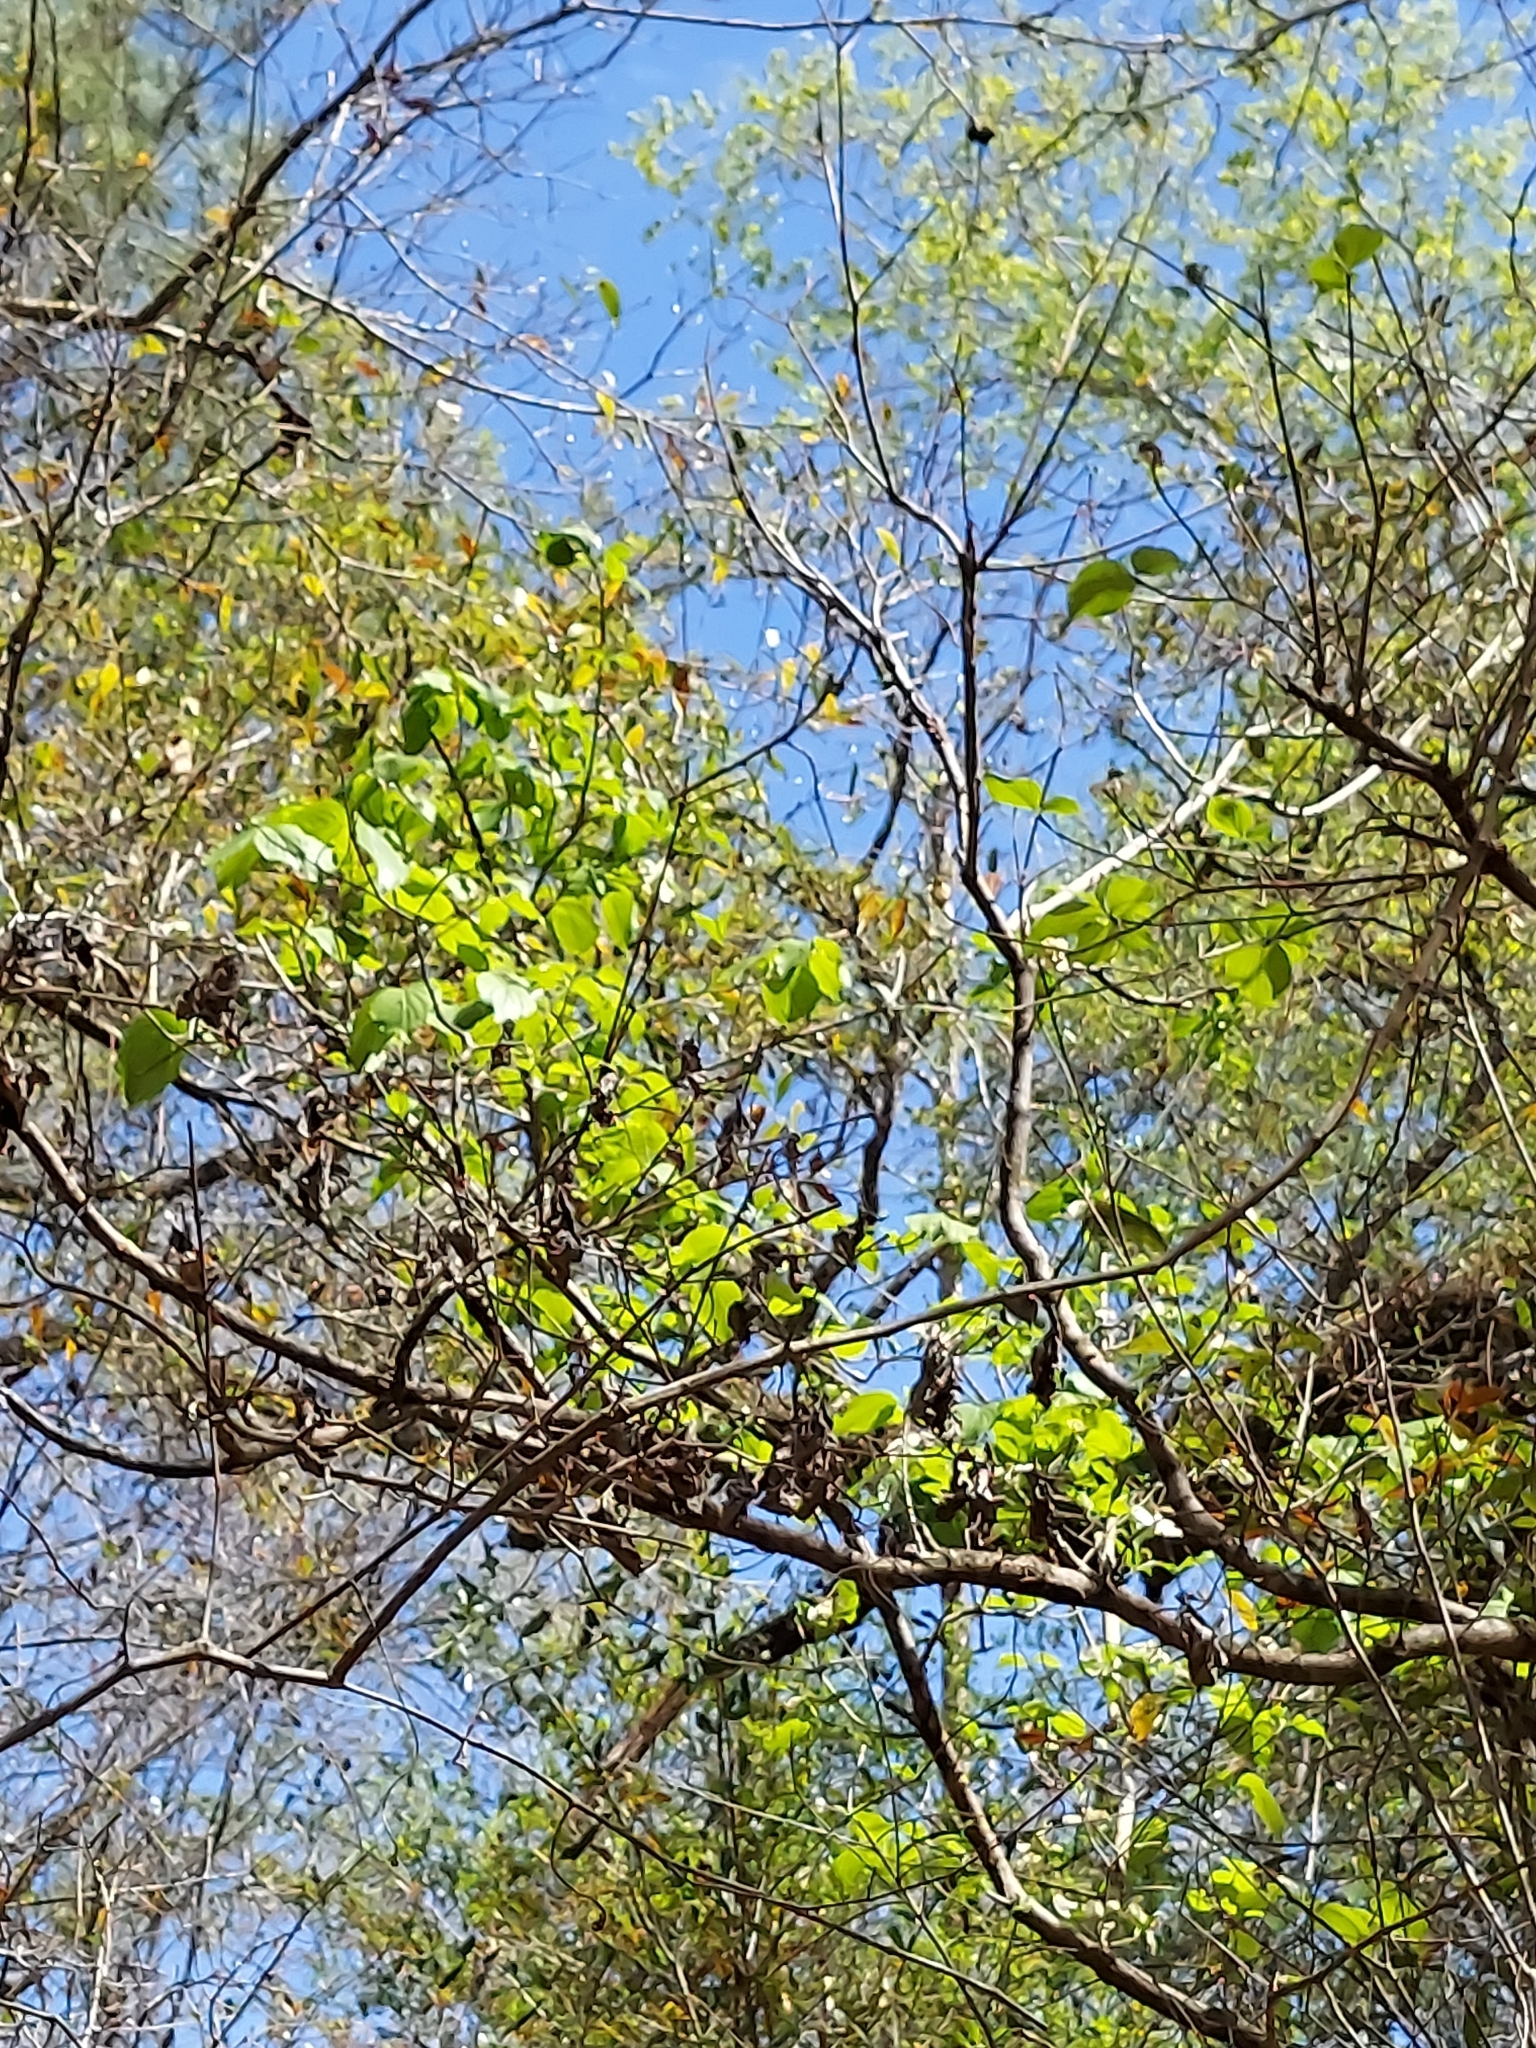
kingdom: Plantae
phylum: Tracheophyta
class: Magnoliopsida
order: Cornales
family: Cornaceae
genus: Cornus
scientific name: Cornus florida
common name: Flowering dogwood
